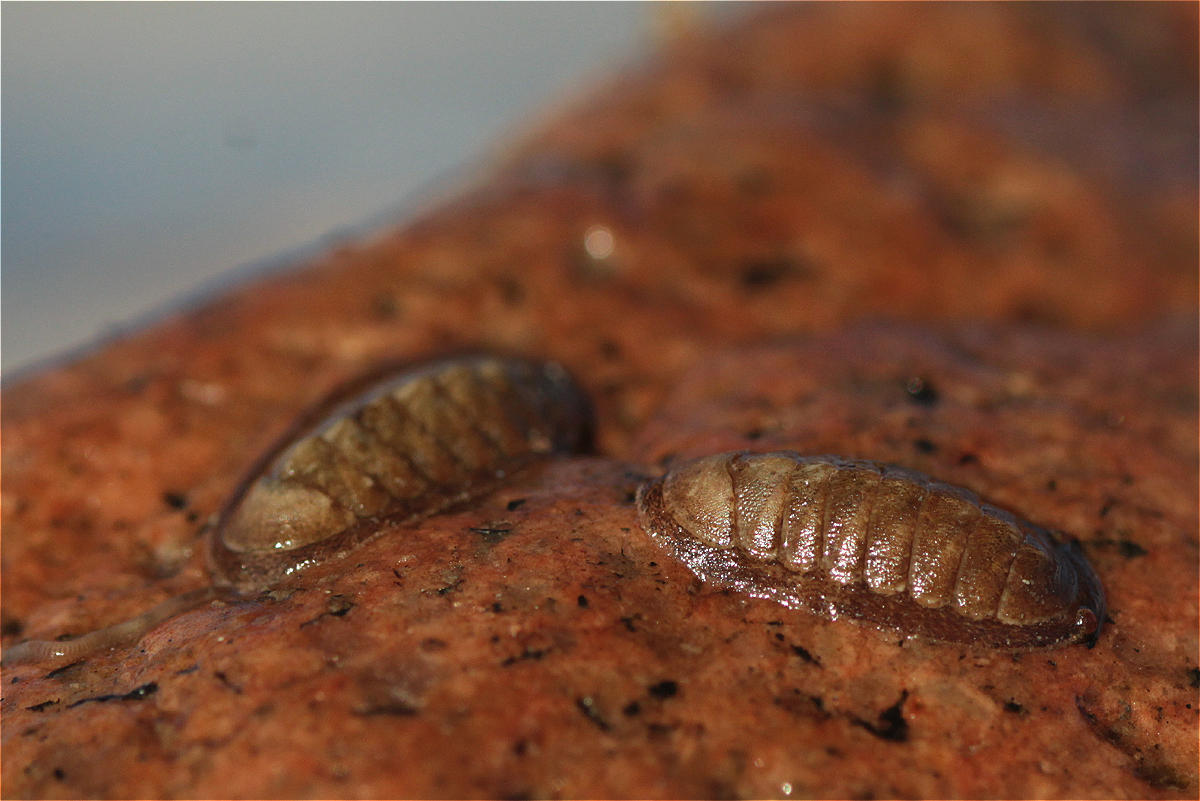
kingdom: Animalia
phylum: Mollusca
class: Polyplacophora
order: Chitonida
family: Ischnochitonidae
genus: Ischnochiton
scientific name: Ischnochiton yerburyi
